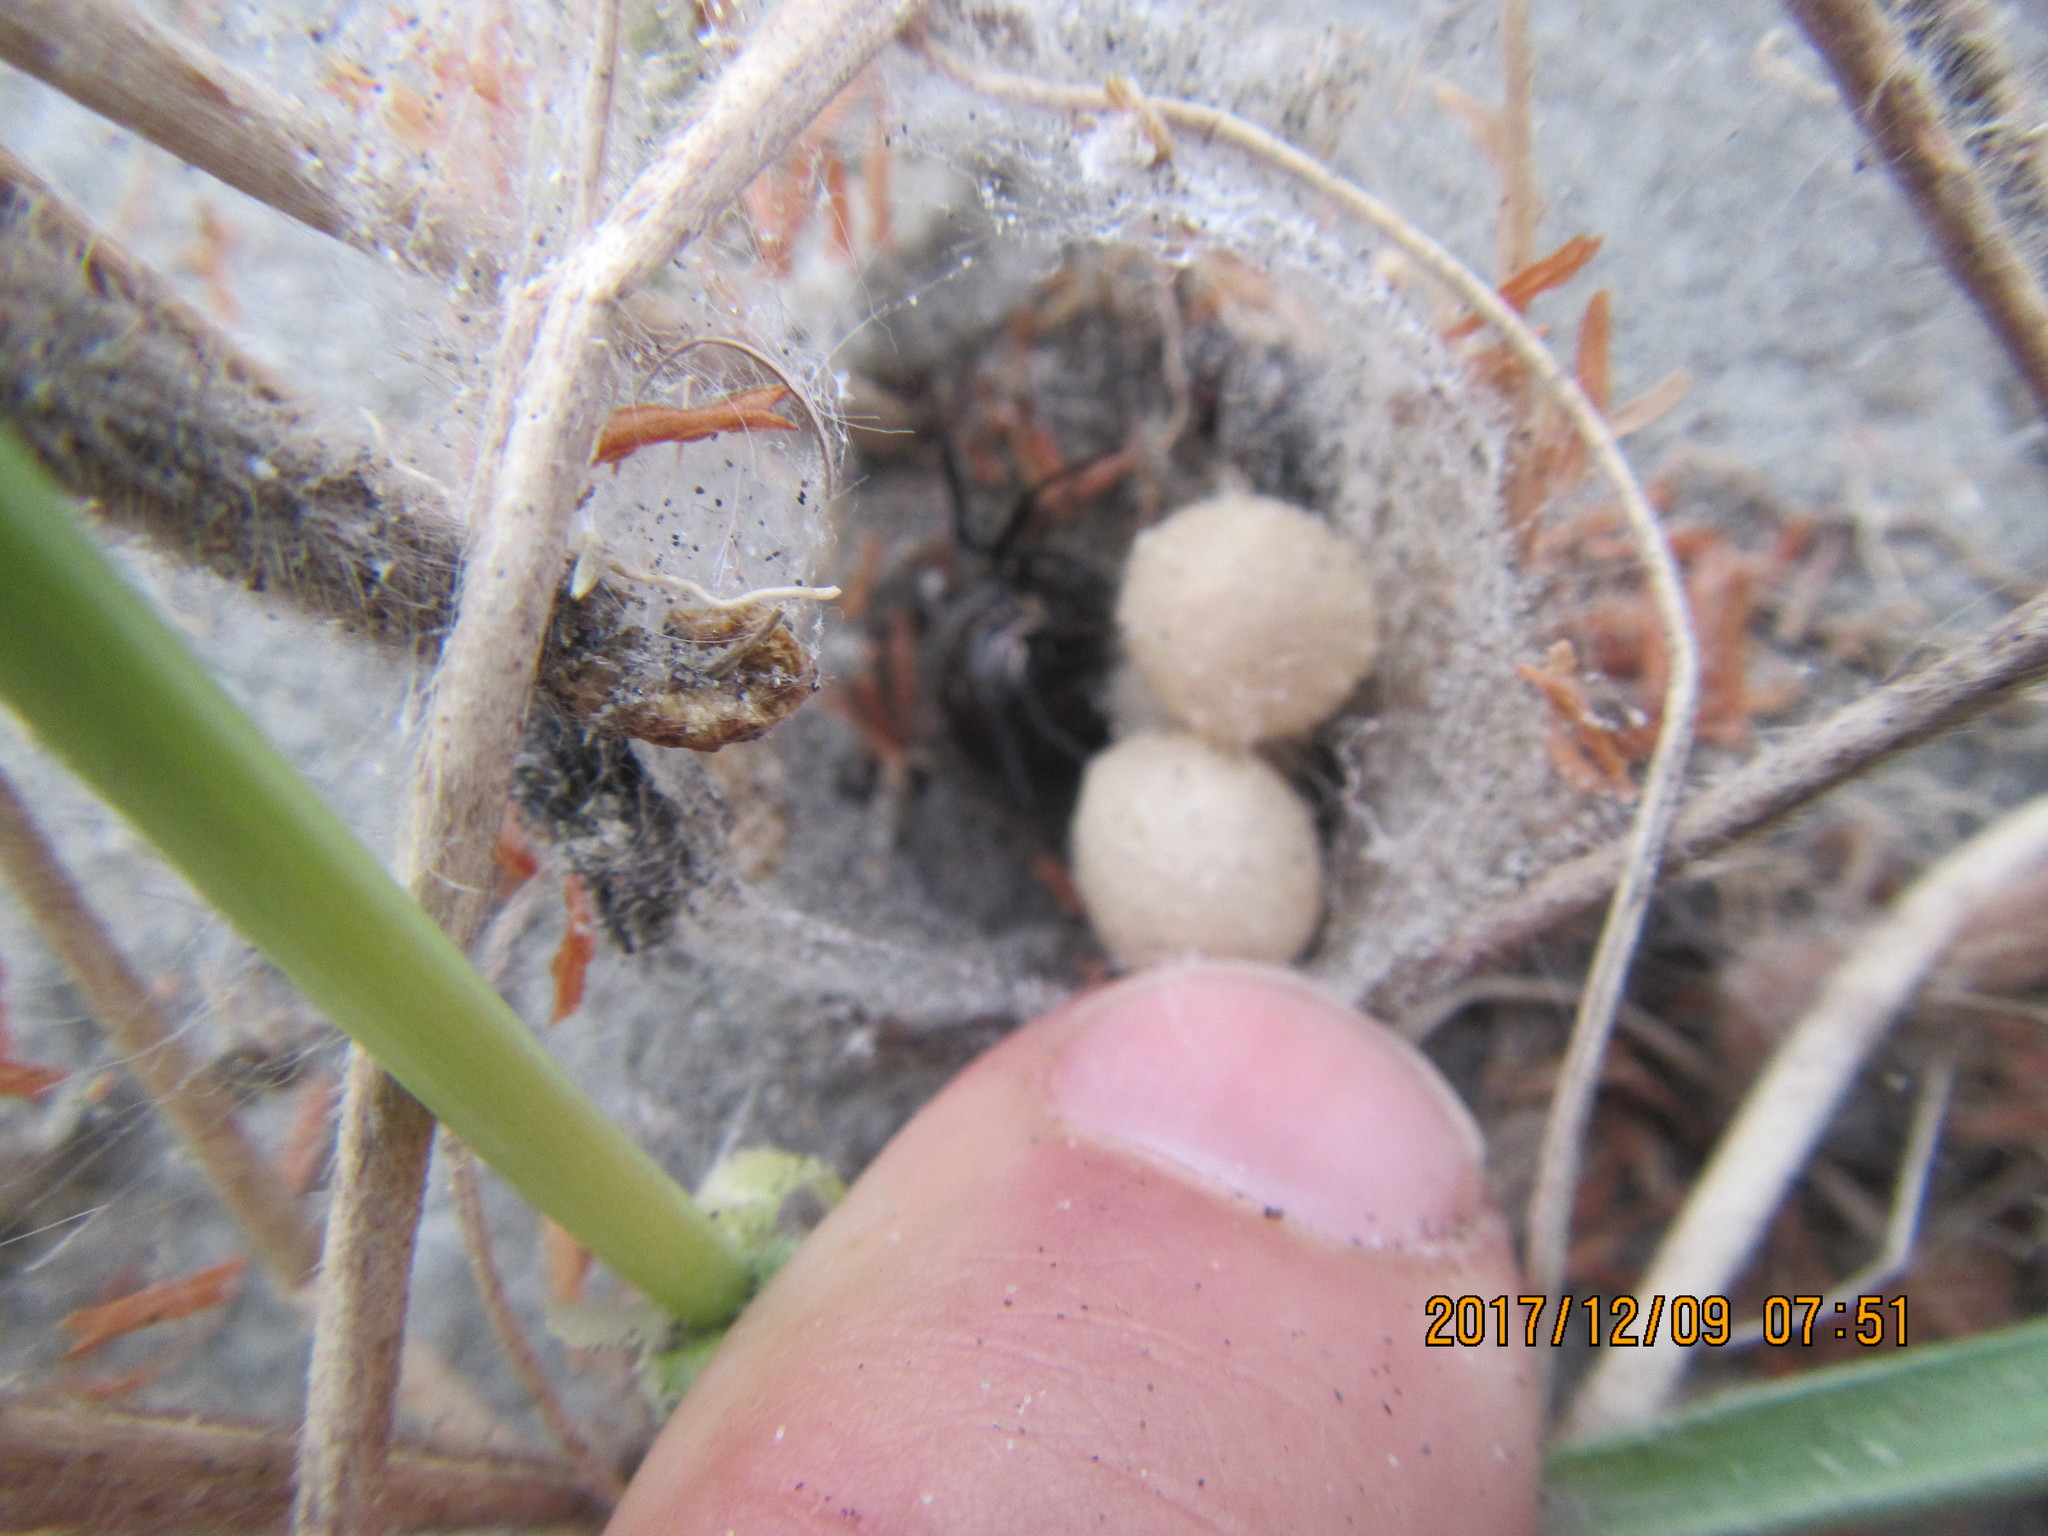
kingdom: Animalia
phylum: Arthropoda
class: Arachnida
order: Araneae
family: Theridiidae
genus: Latrodectus
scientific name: Latrodectus katipo
